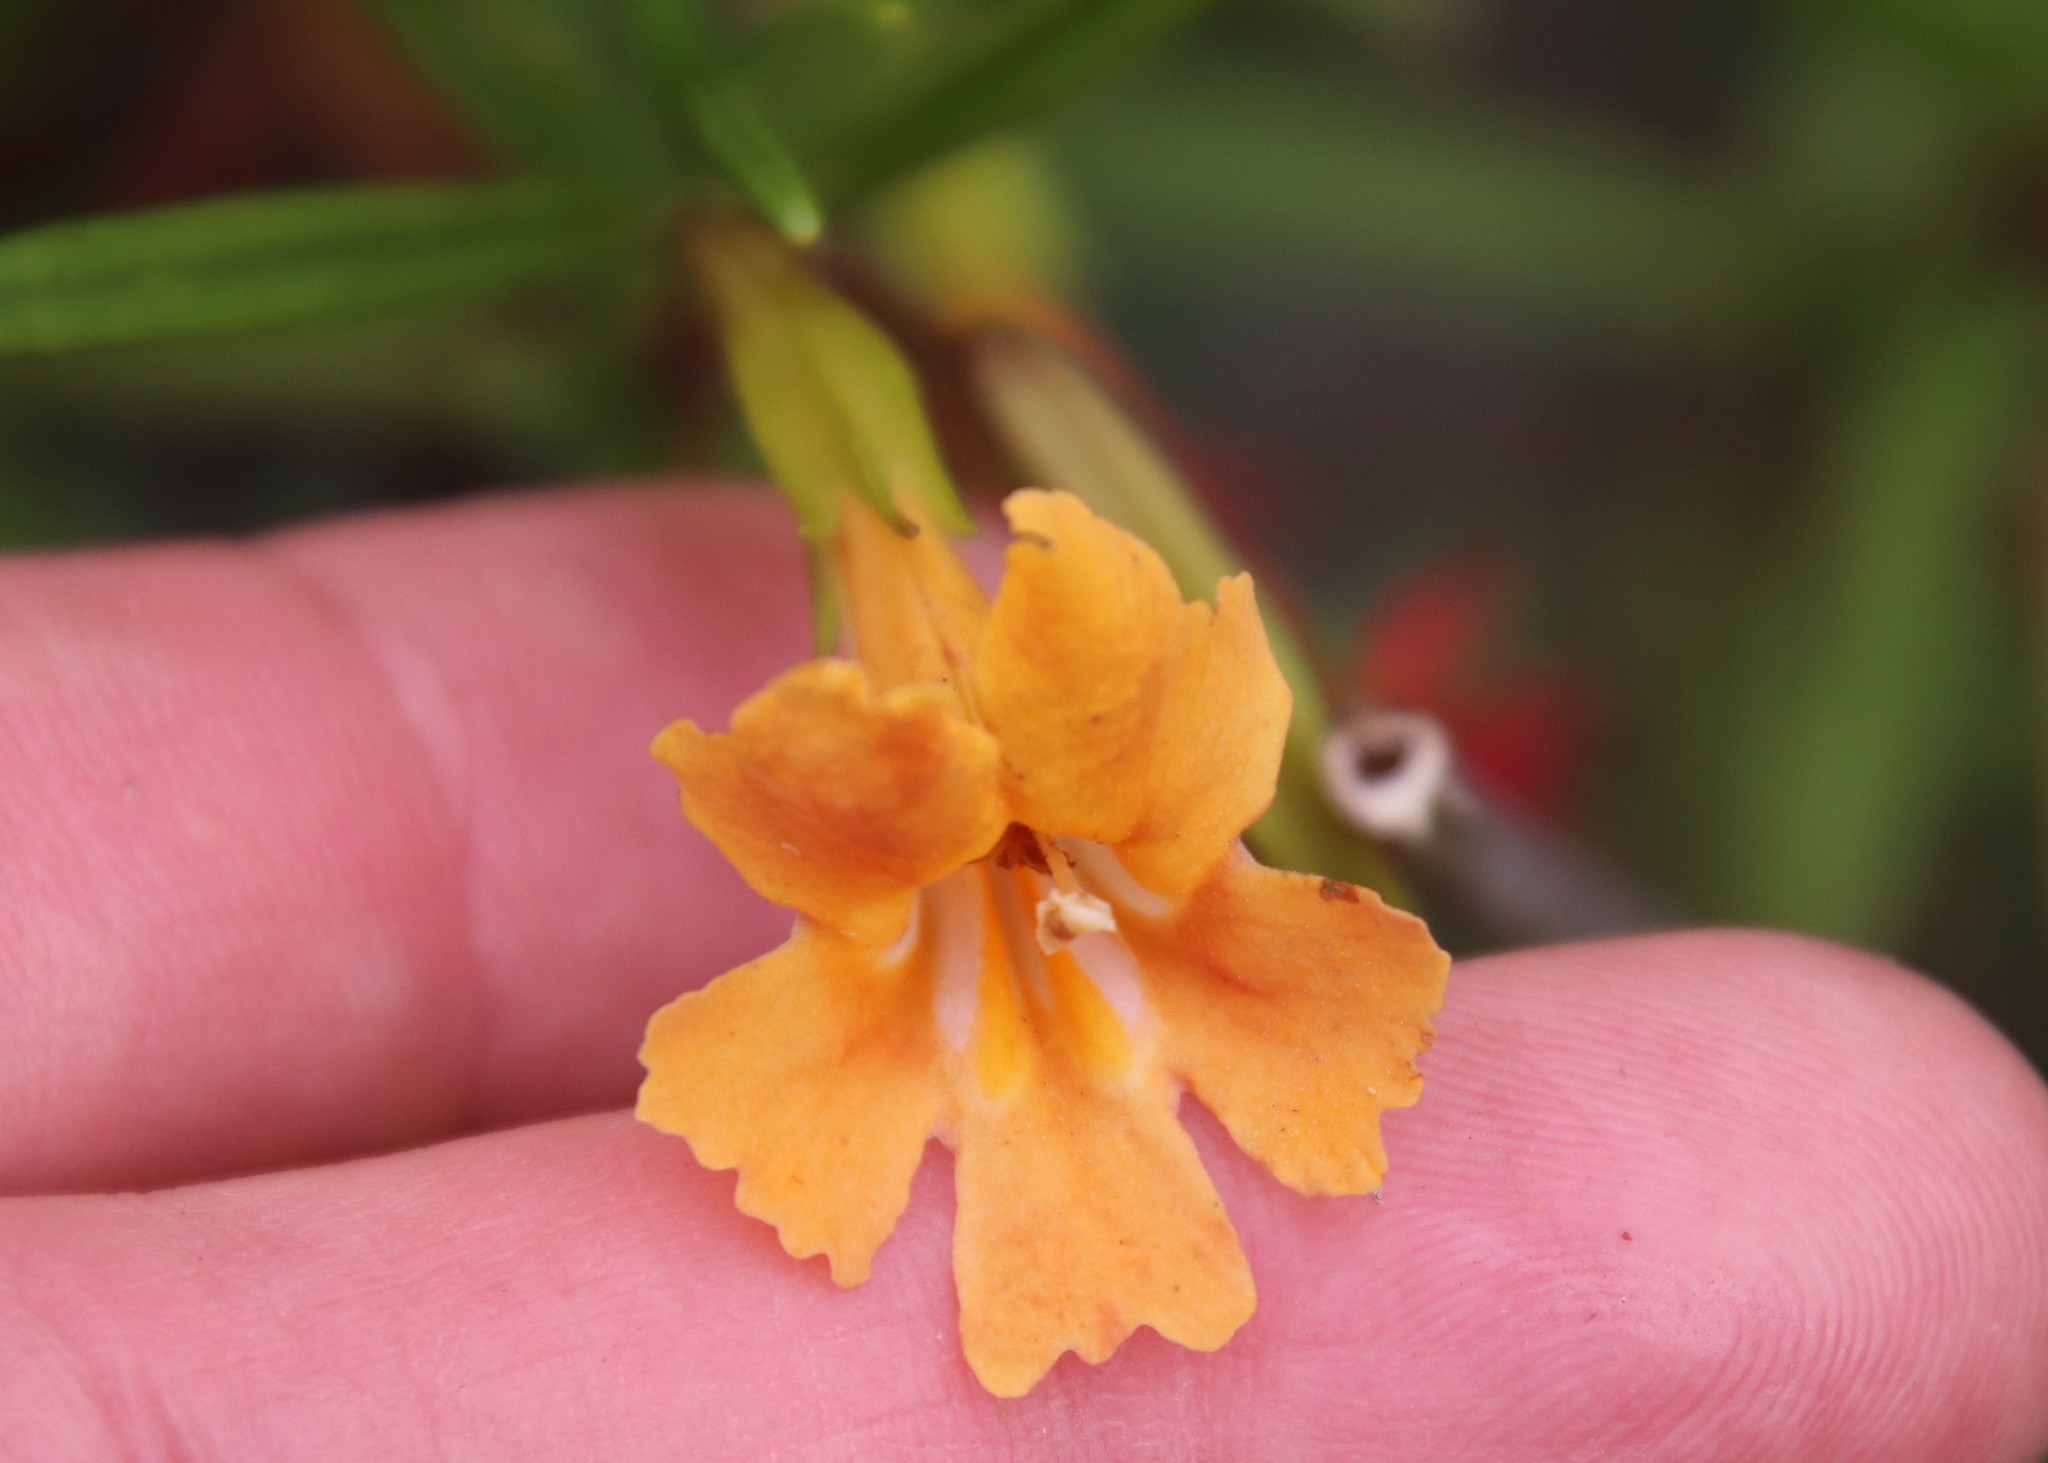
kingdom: Plantae
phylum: Tracheophyta
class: Magnoliopsida
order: Lamiales
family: Phrymaceae
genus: Diplacus
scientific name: Diplacus australis
